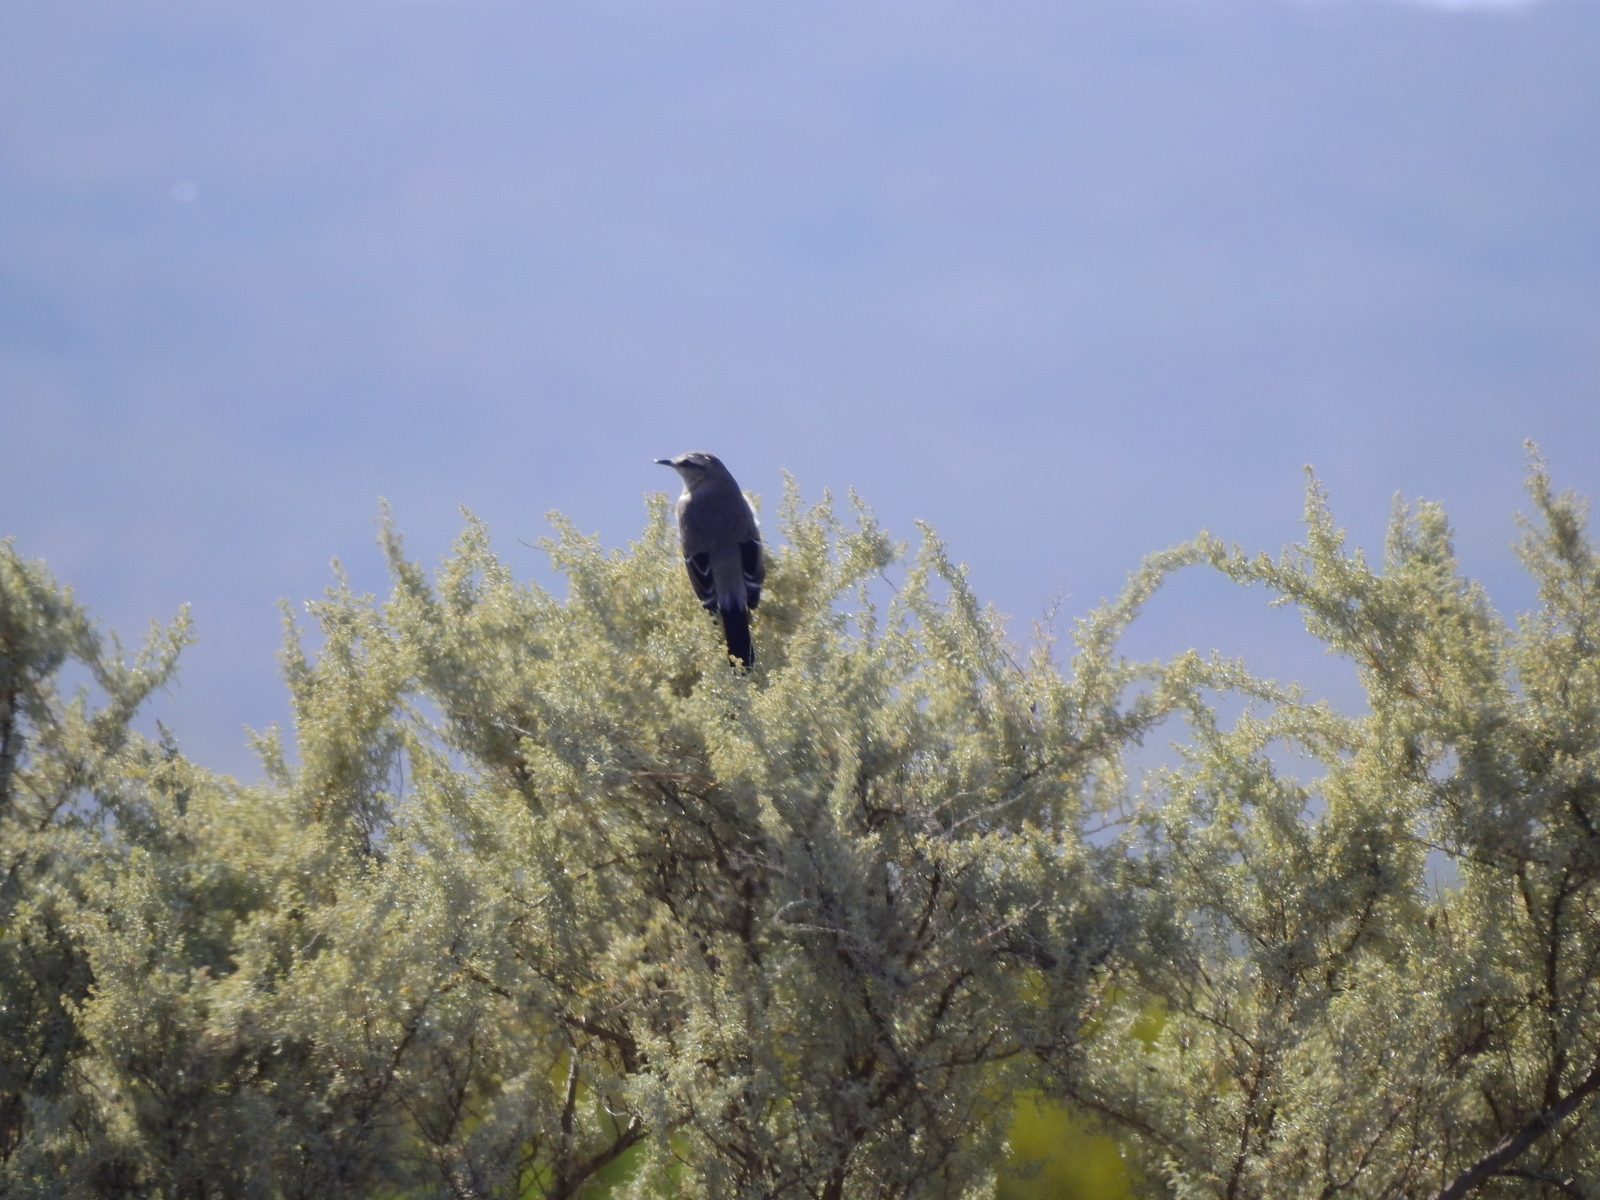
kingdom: Animalia
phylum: Chordata
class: Aves
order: Passeriformes
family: Mimidae
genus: Mimus
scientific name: Mimus patagonicus
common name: Patagonian mockingbird
